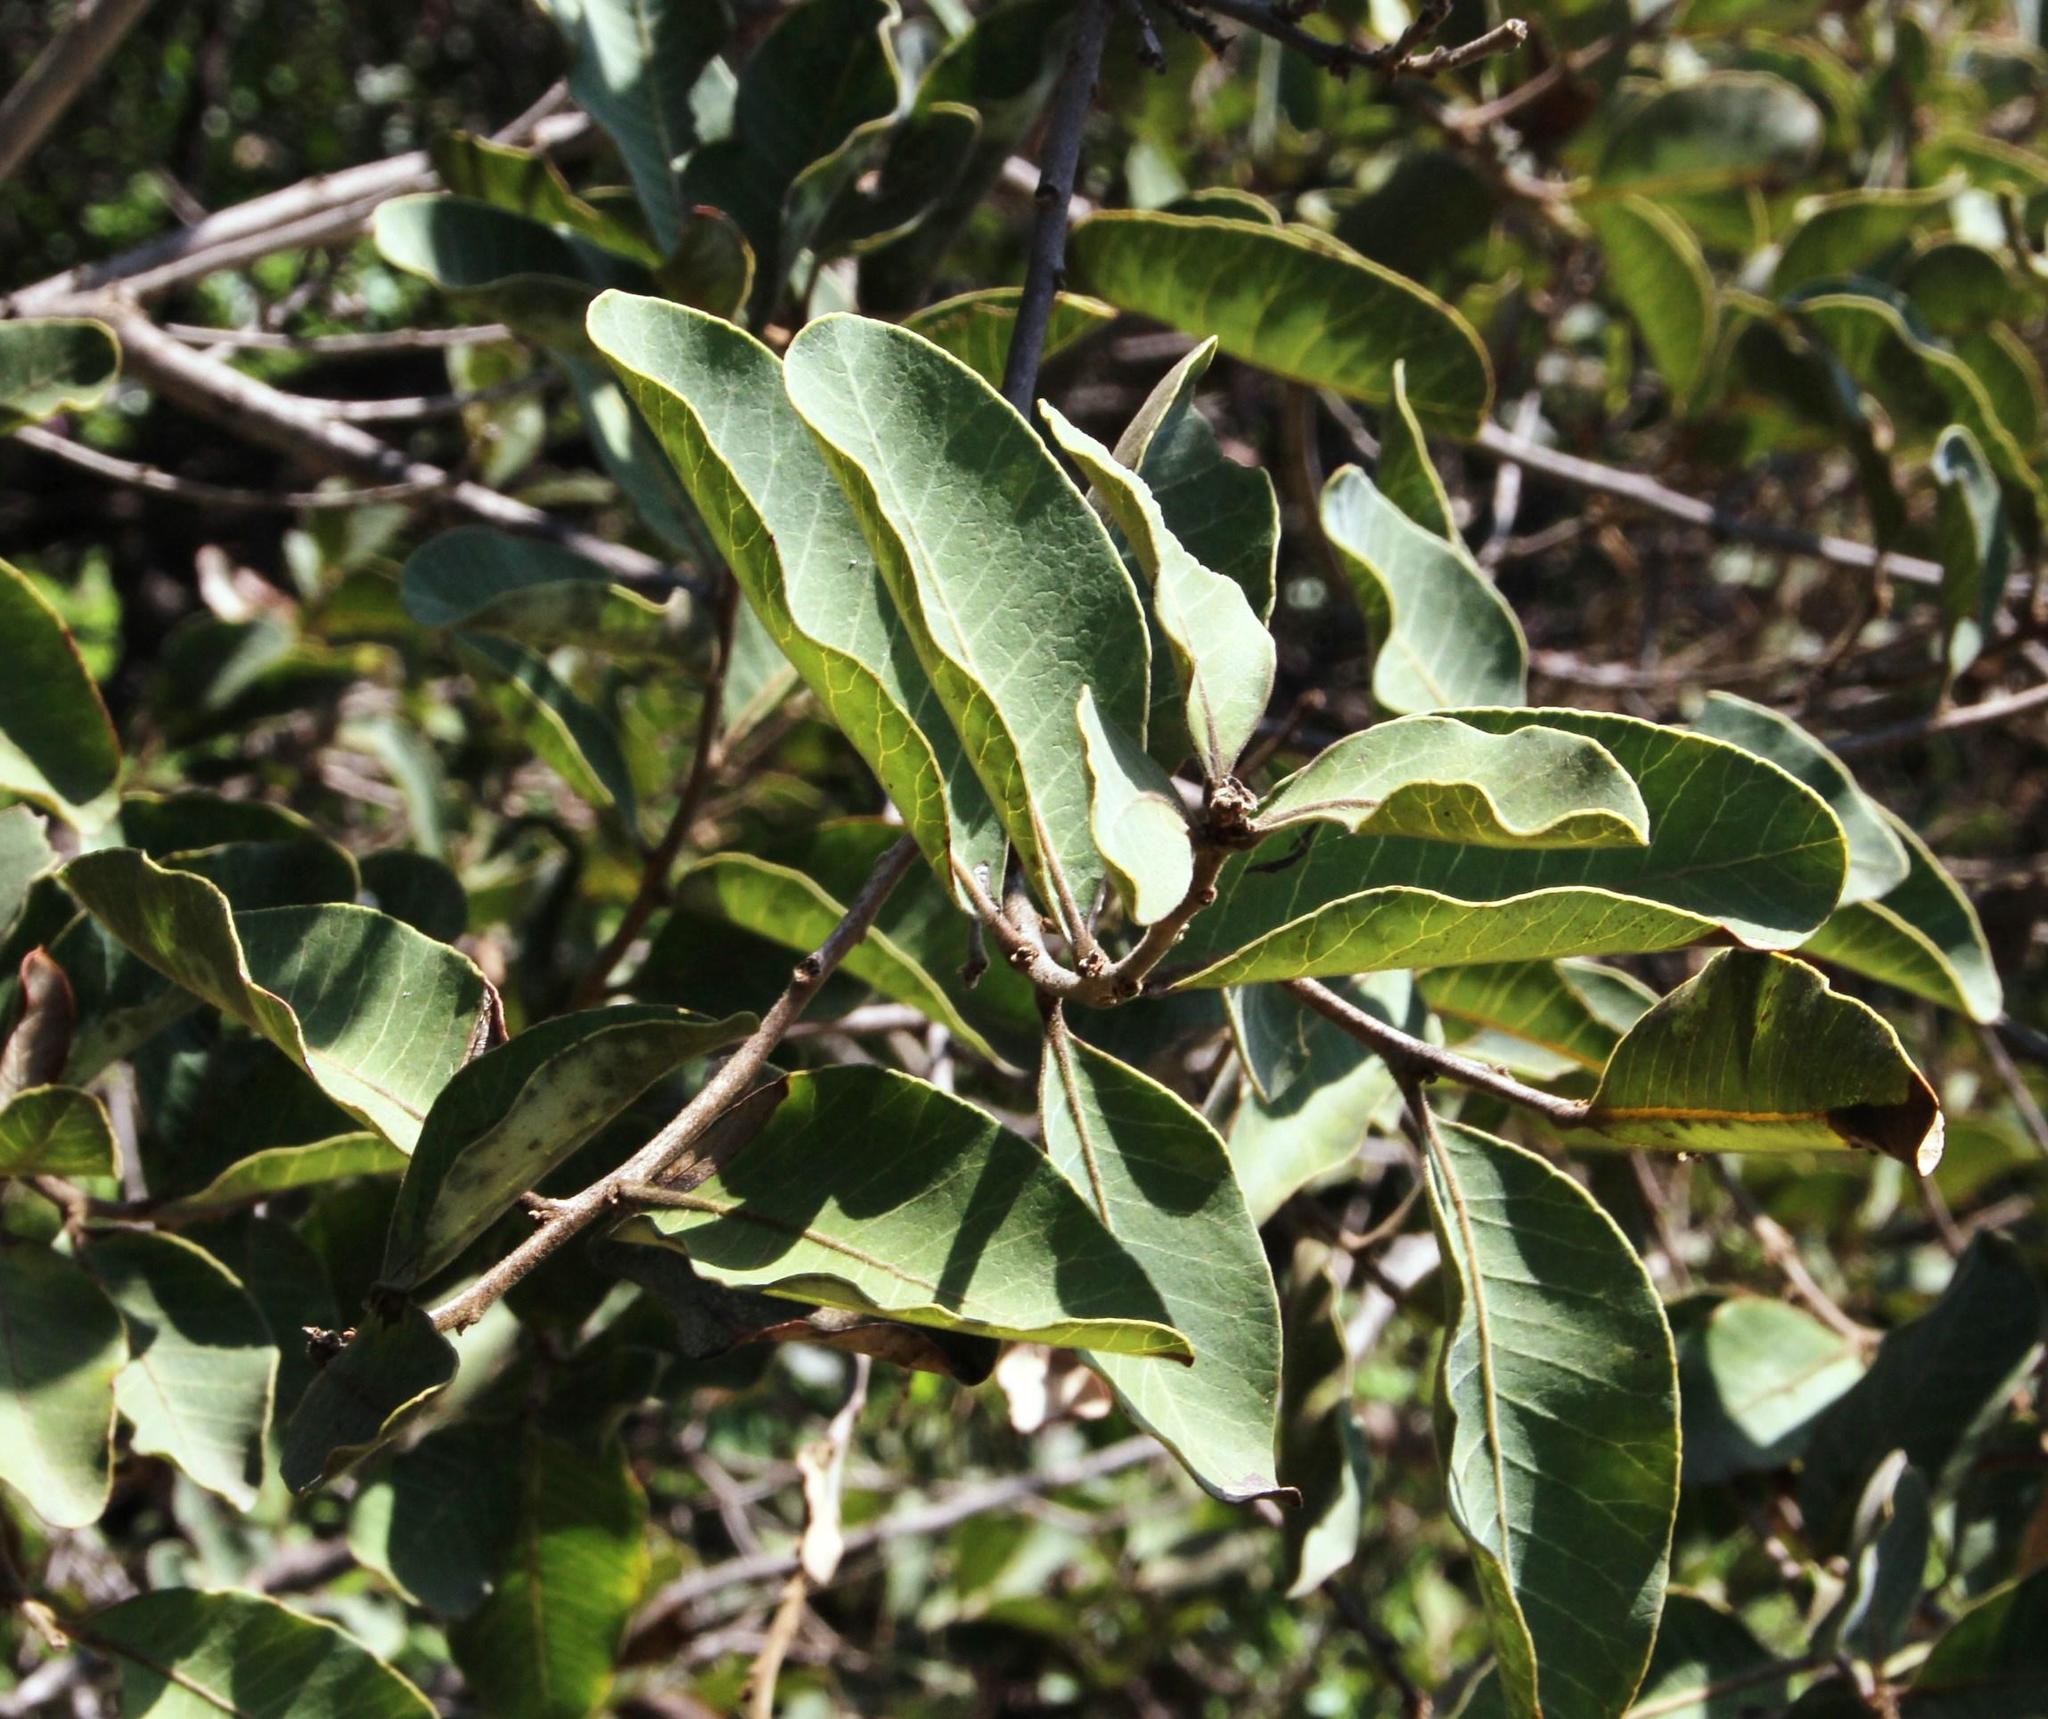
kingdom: Plantae
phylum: Tracheophyta
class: Magnoliopsida
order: Sapindales
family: Anacardiaceae
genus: Lithraea
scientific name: Lithraea caustica
